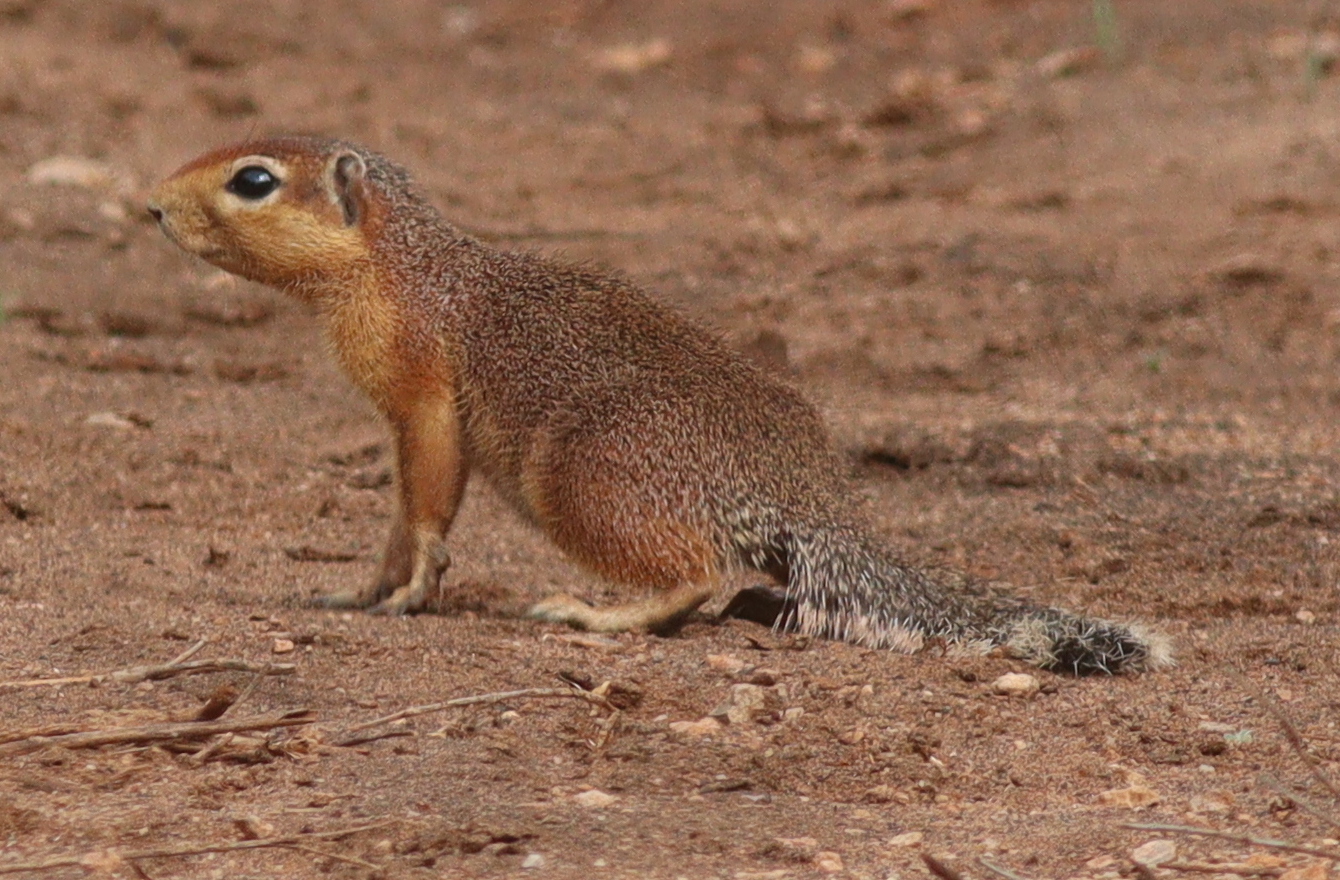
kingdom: Animalia
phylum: Chordata
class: Mammalia
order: Rodentia
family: Sciuridae
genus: Xerus
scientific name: Xerus rutilus
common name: Unstriped ground squirrel
